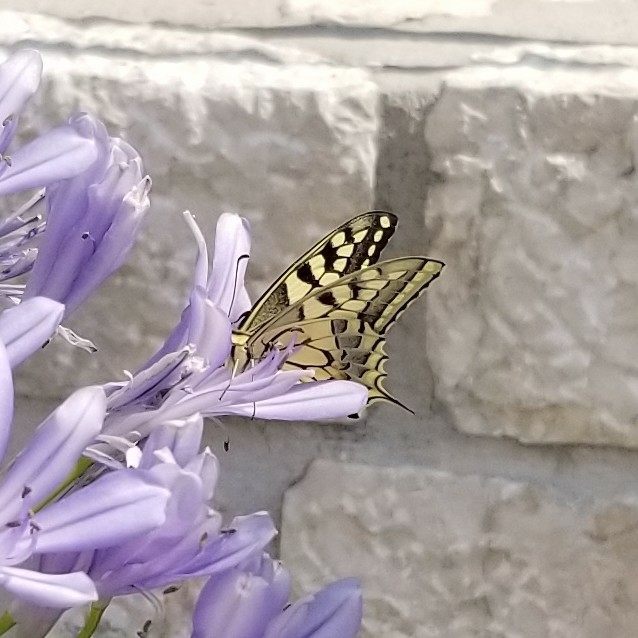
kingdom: Animalia
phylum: Arthropoda
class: Insecta
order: Lepidoptera
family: Papilionidae
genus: Papilio
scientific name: Papilio machaon
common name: Swallowtail
